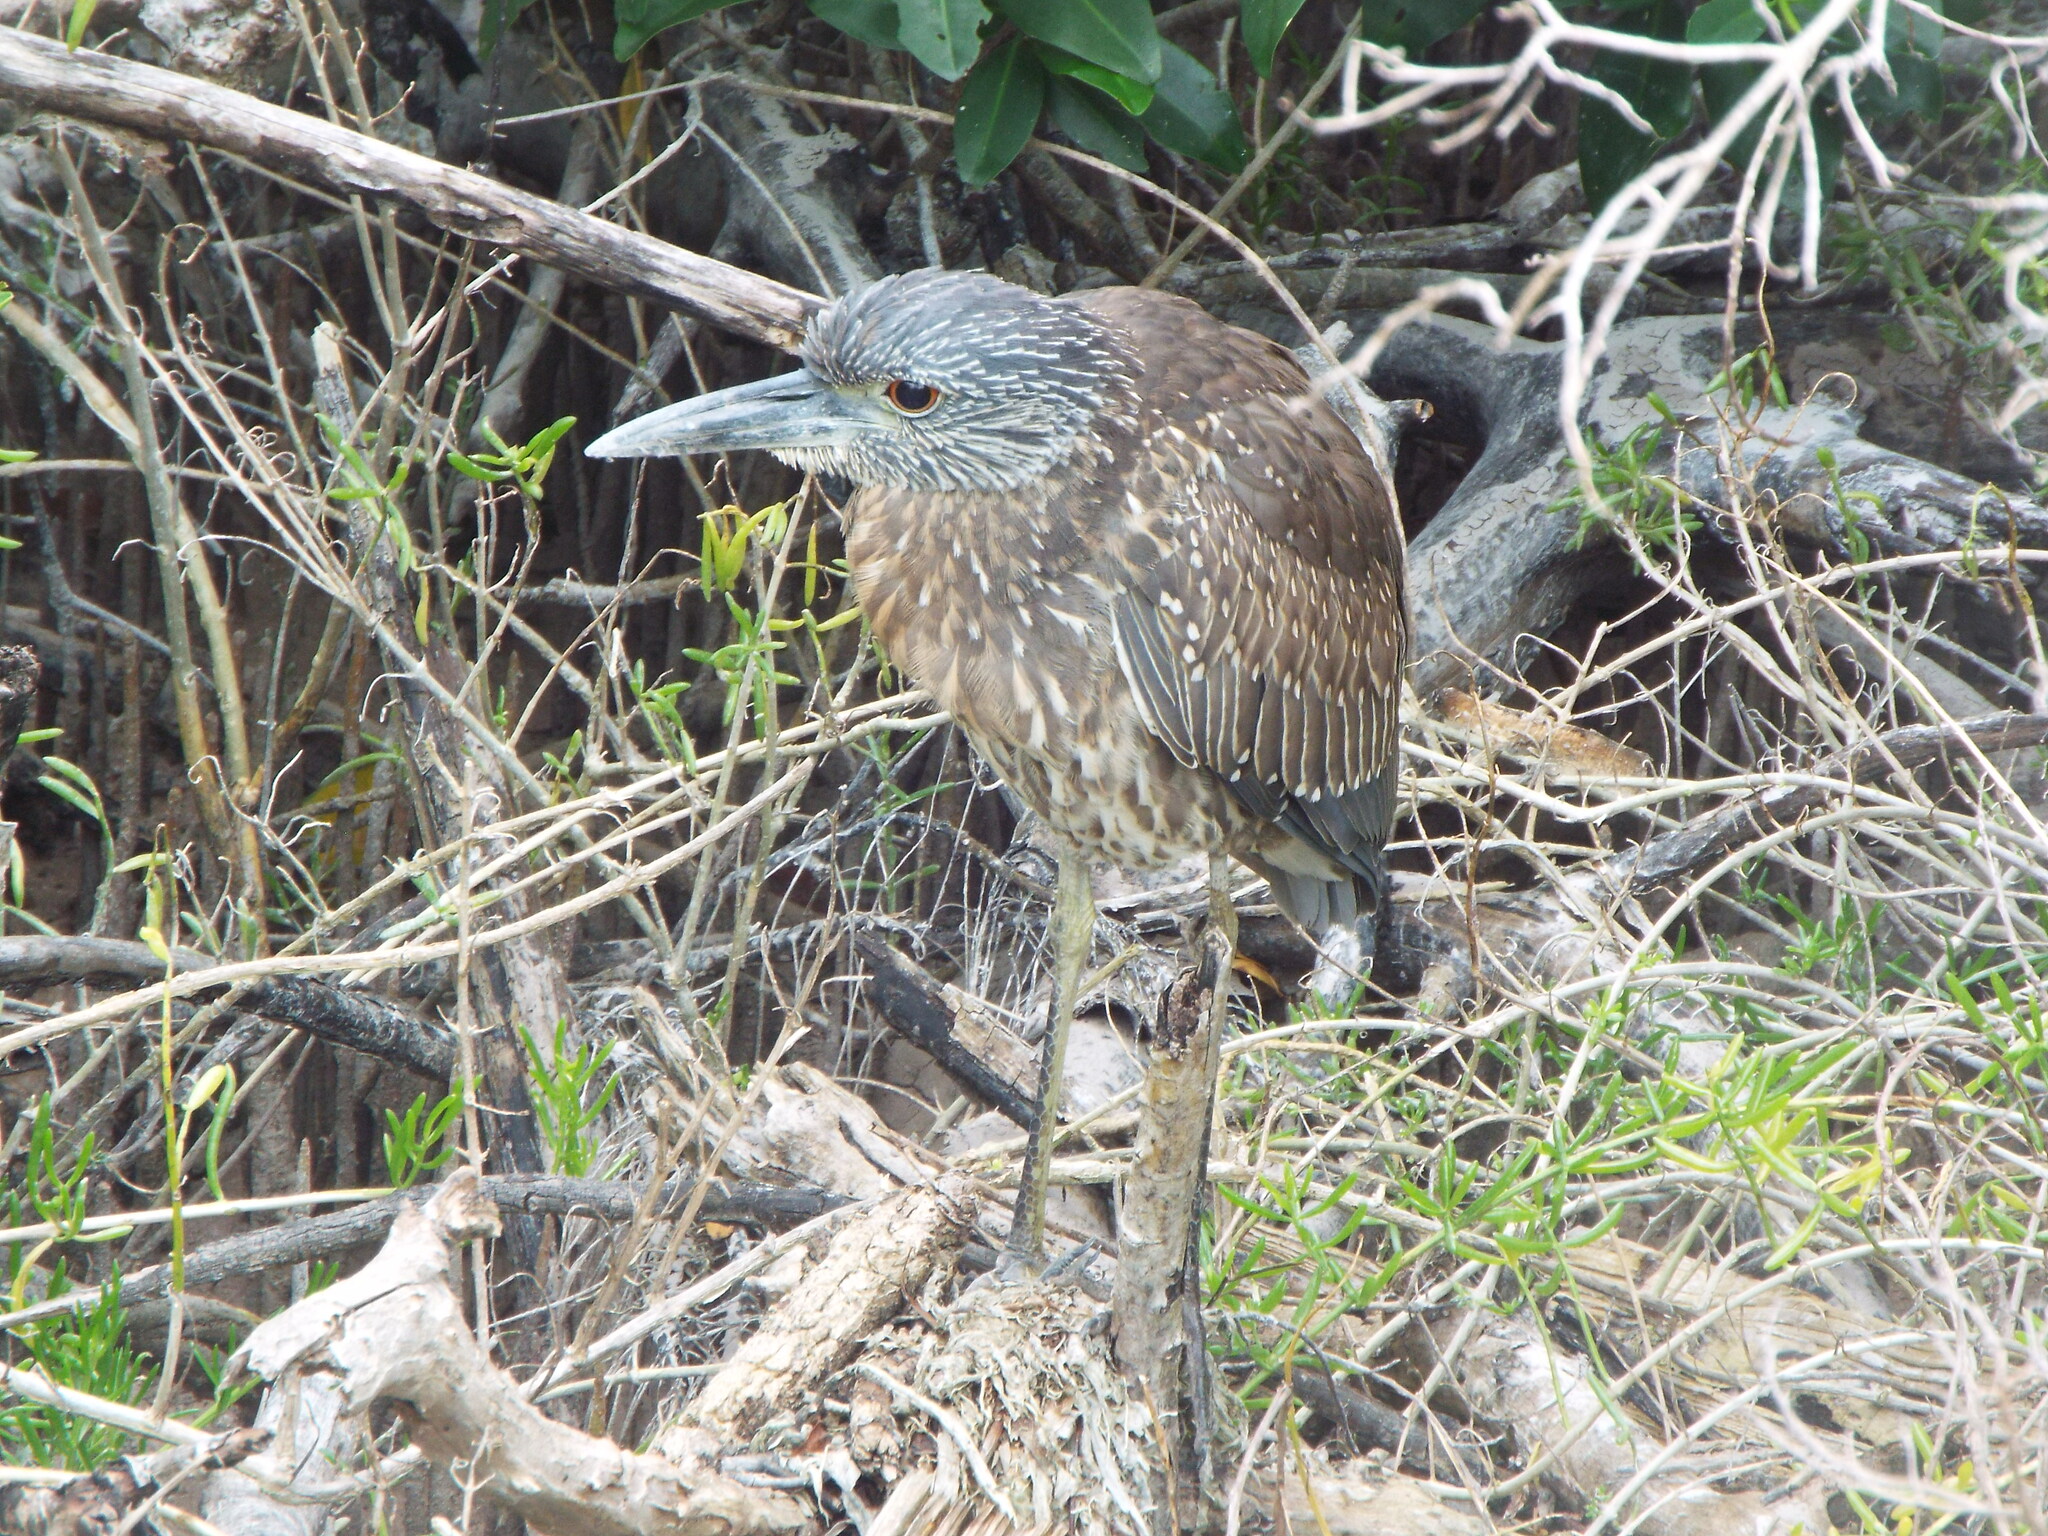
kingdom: Animalia
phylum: Chordata
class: Aves
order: Pelecaniformes
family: Ardeidae
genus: Nyctanassa
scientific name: Nyctanassa violacea
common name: Yellow-crowned night heron
